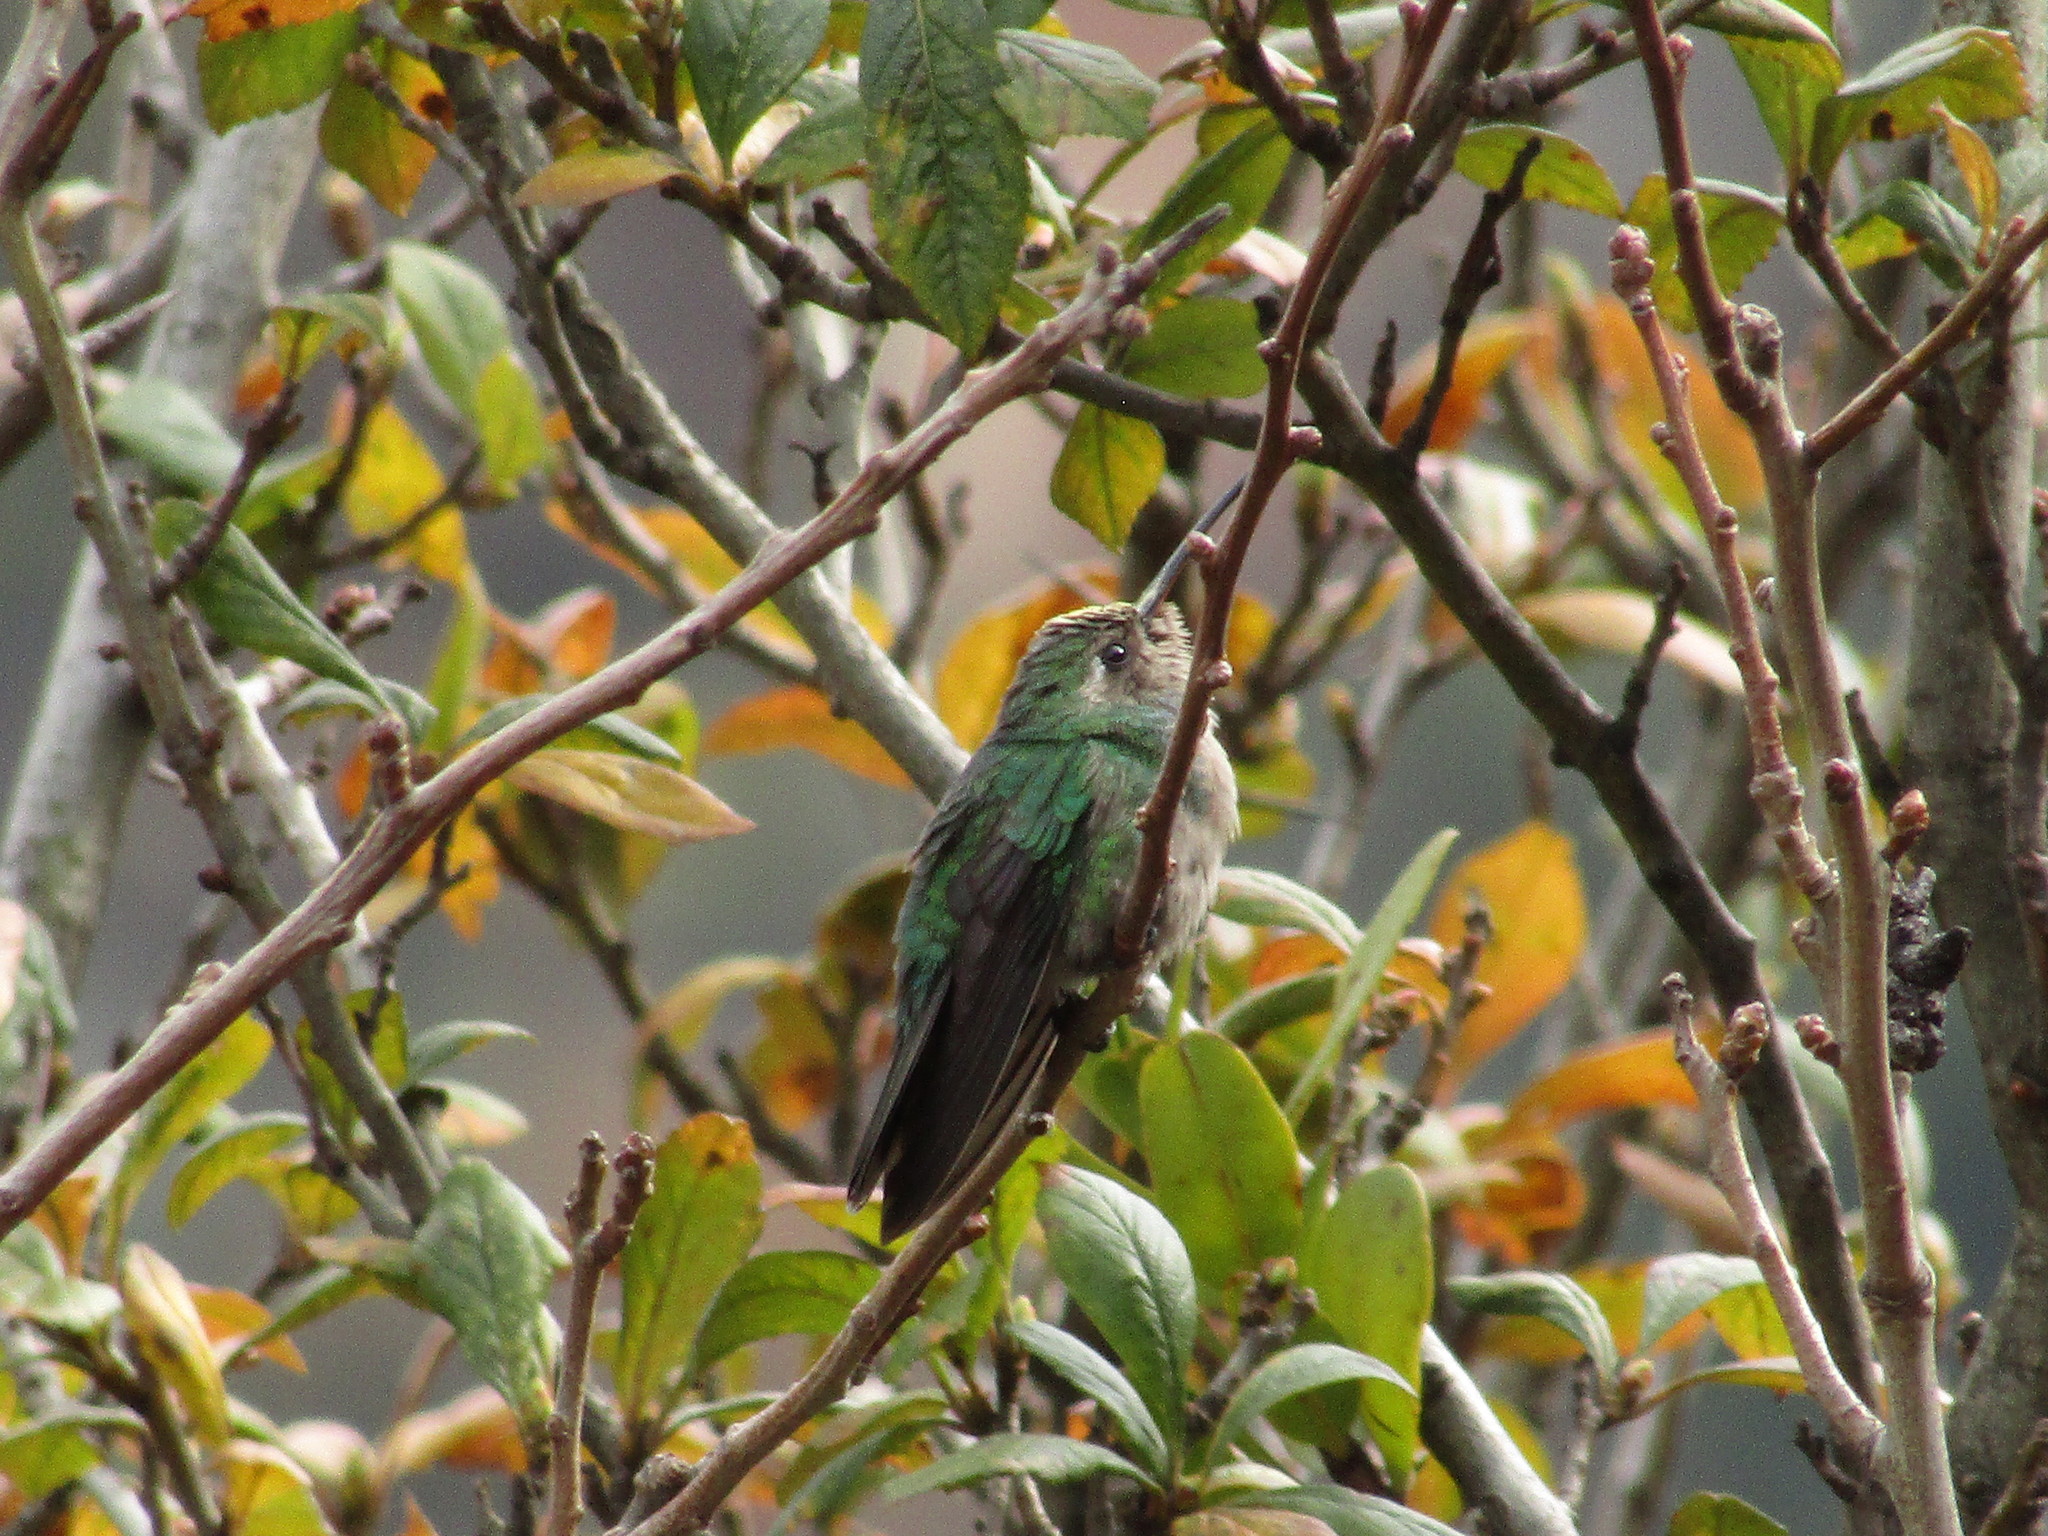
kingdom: Animalia
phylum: Chordata
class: Aves
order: Apodiformes
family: Trochilidae
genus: Selasphorus
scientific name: Selasphorus platycercus
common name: Broad-tailed hummingbird
